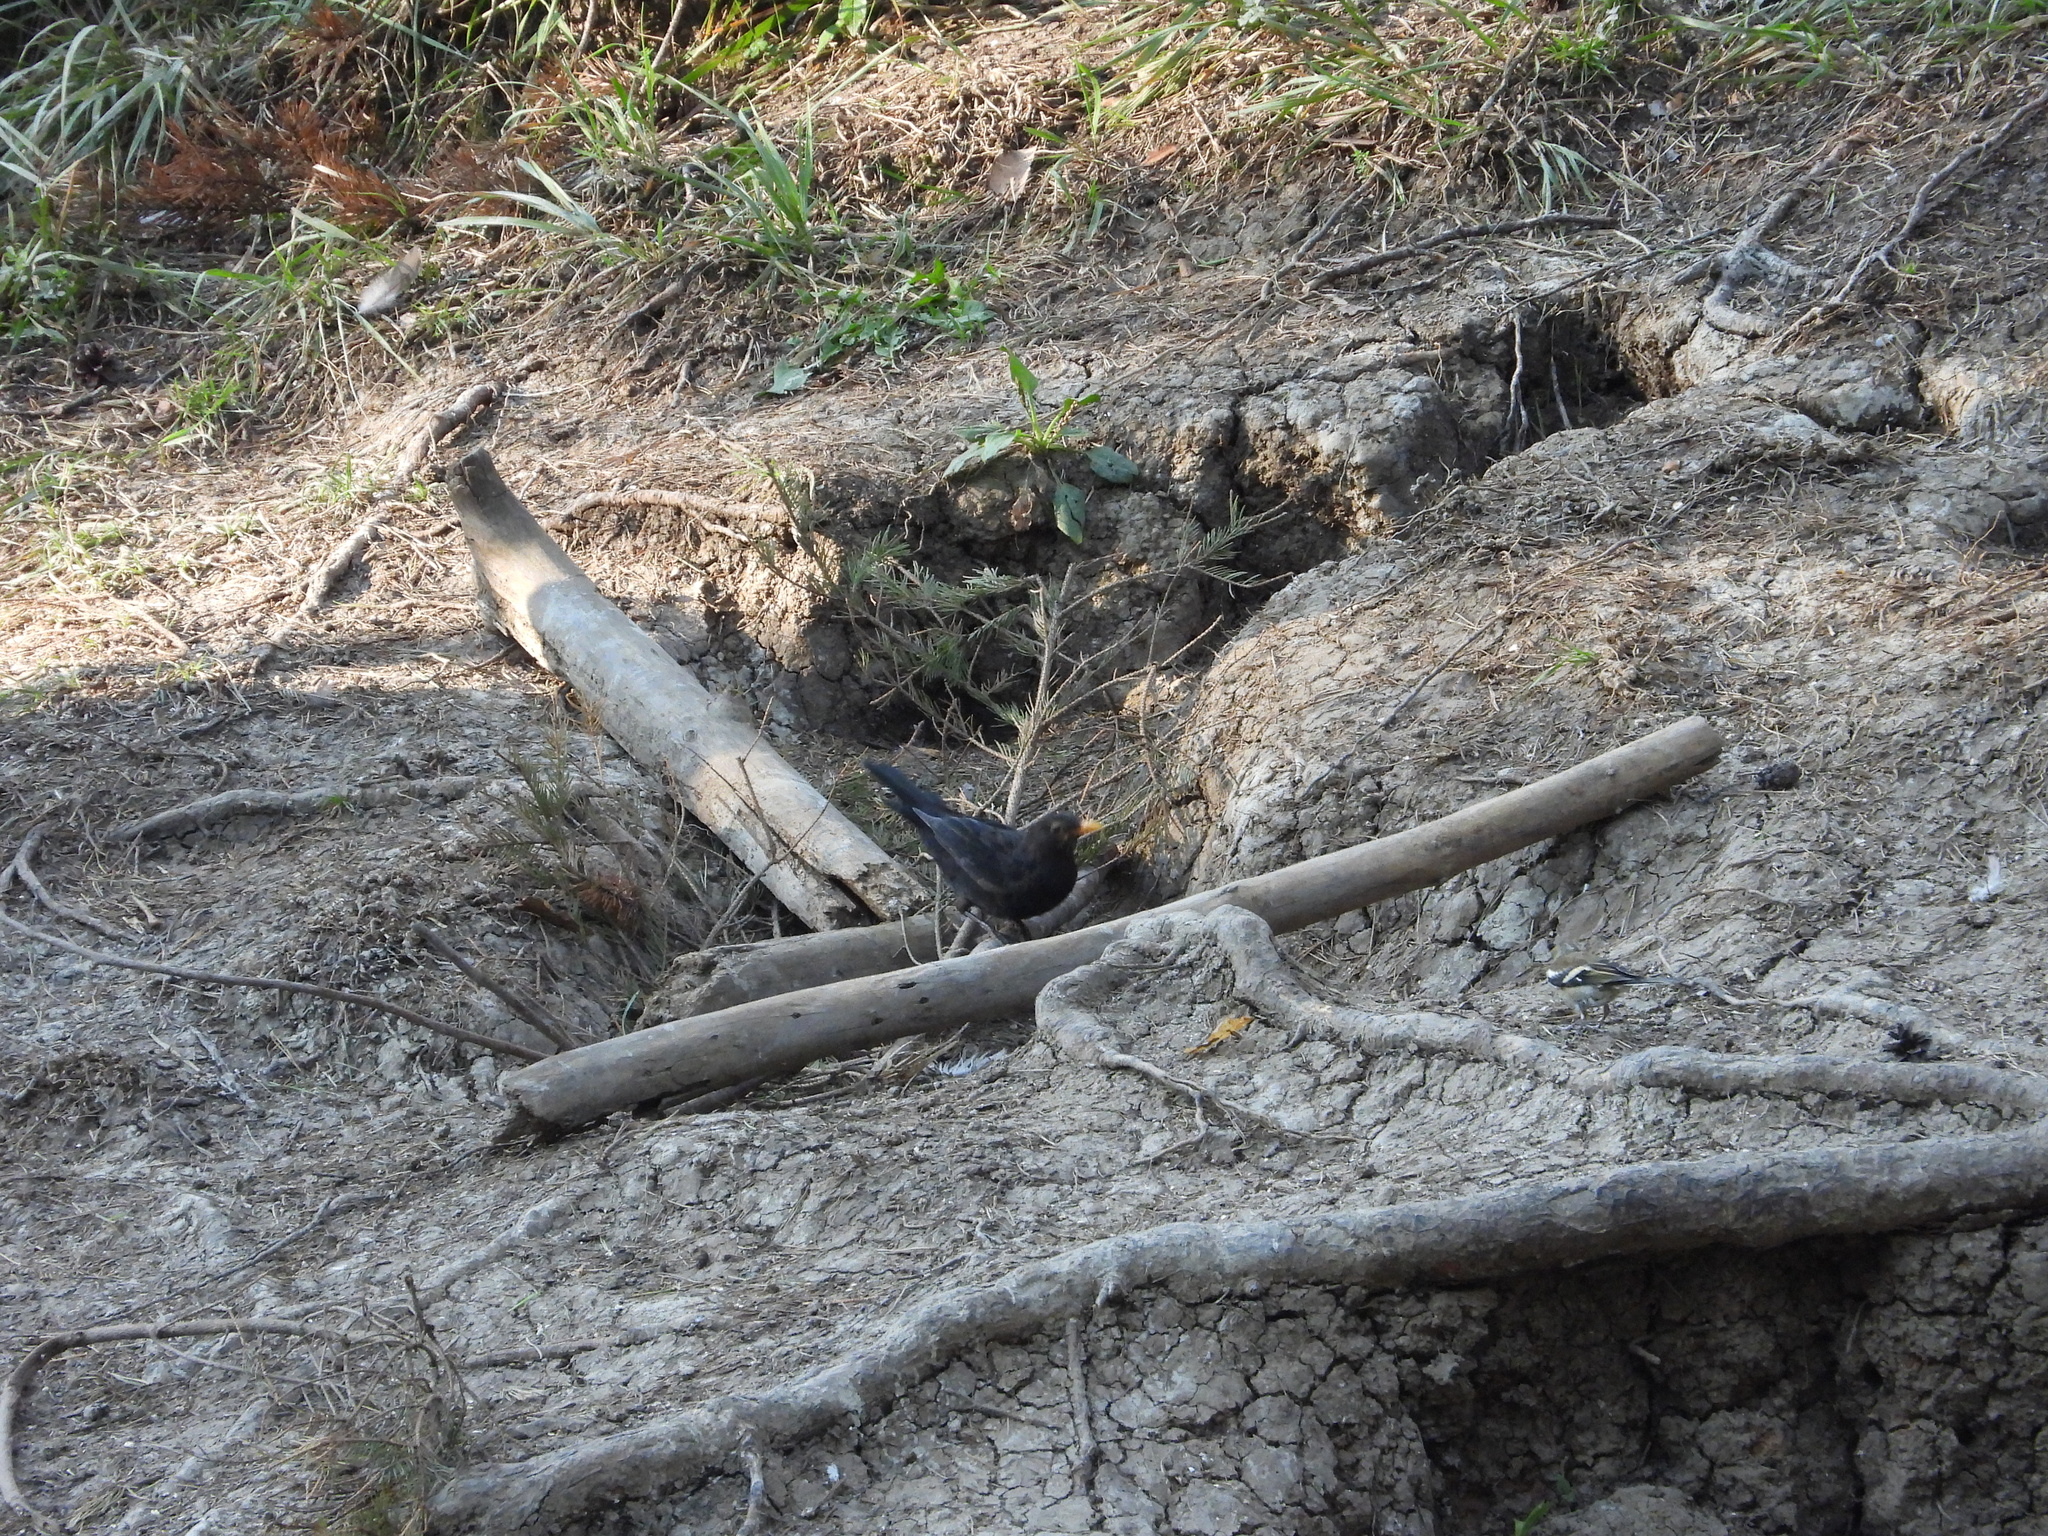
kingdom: Animalia
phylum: Chordata
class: Aves
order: Passeriformes
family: Turdidae
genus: Turdus
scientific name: Turdus merula
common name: Common blackbird
